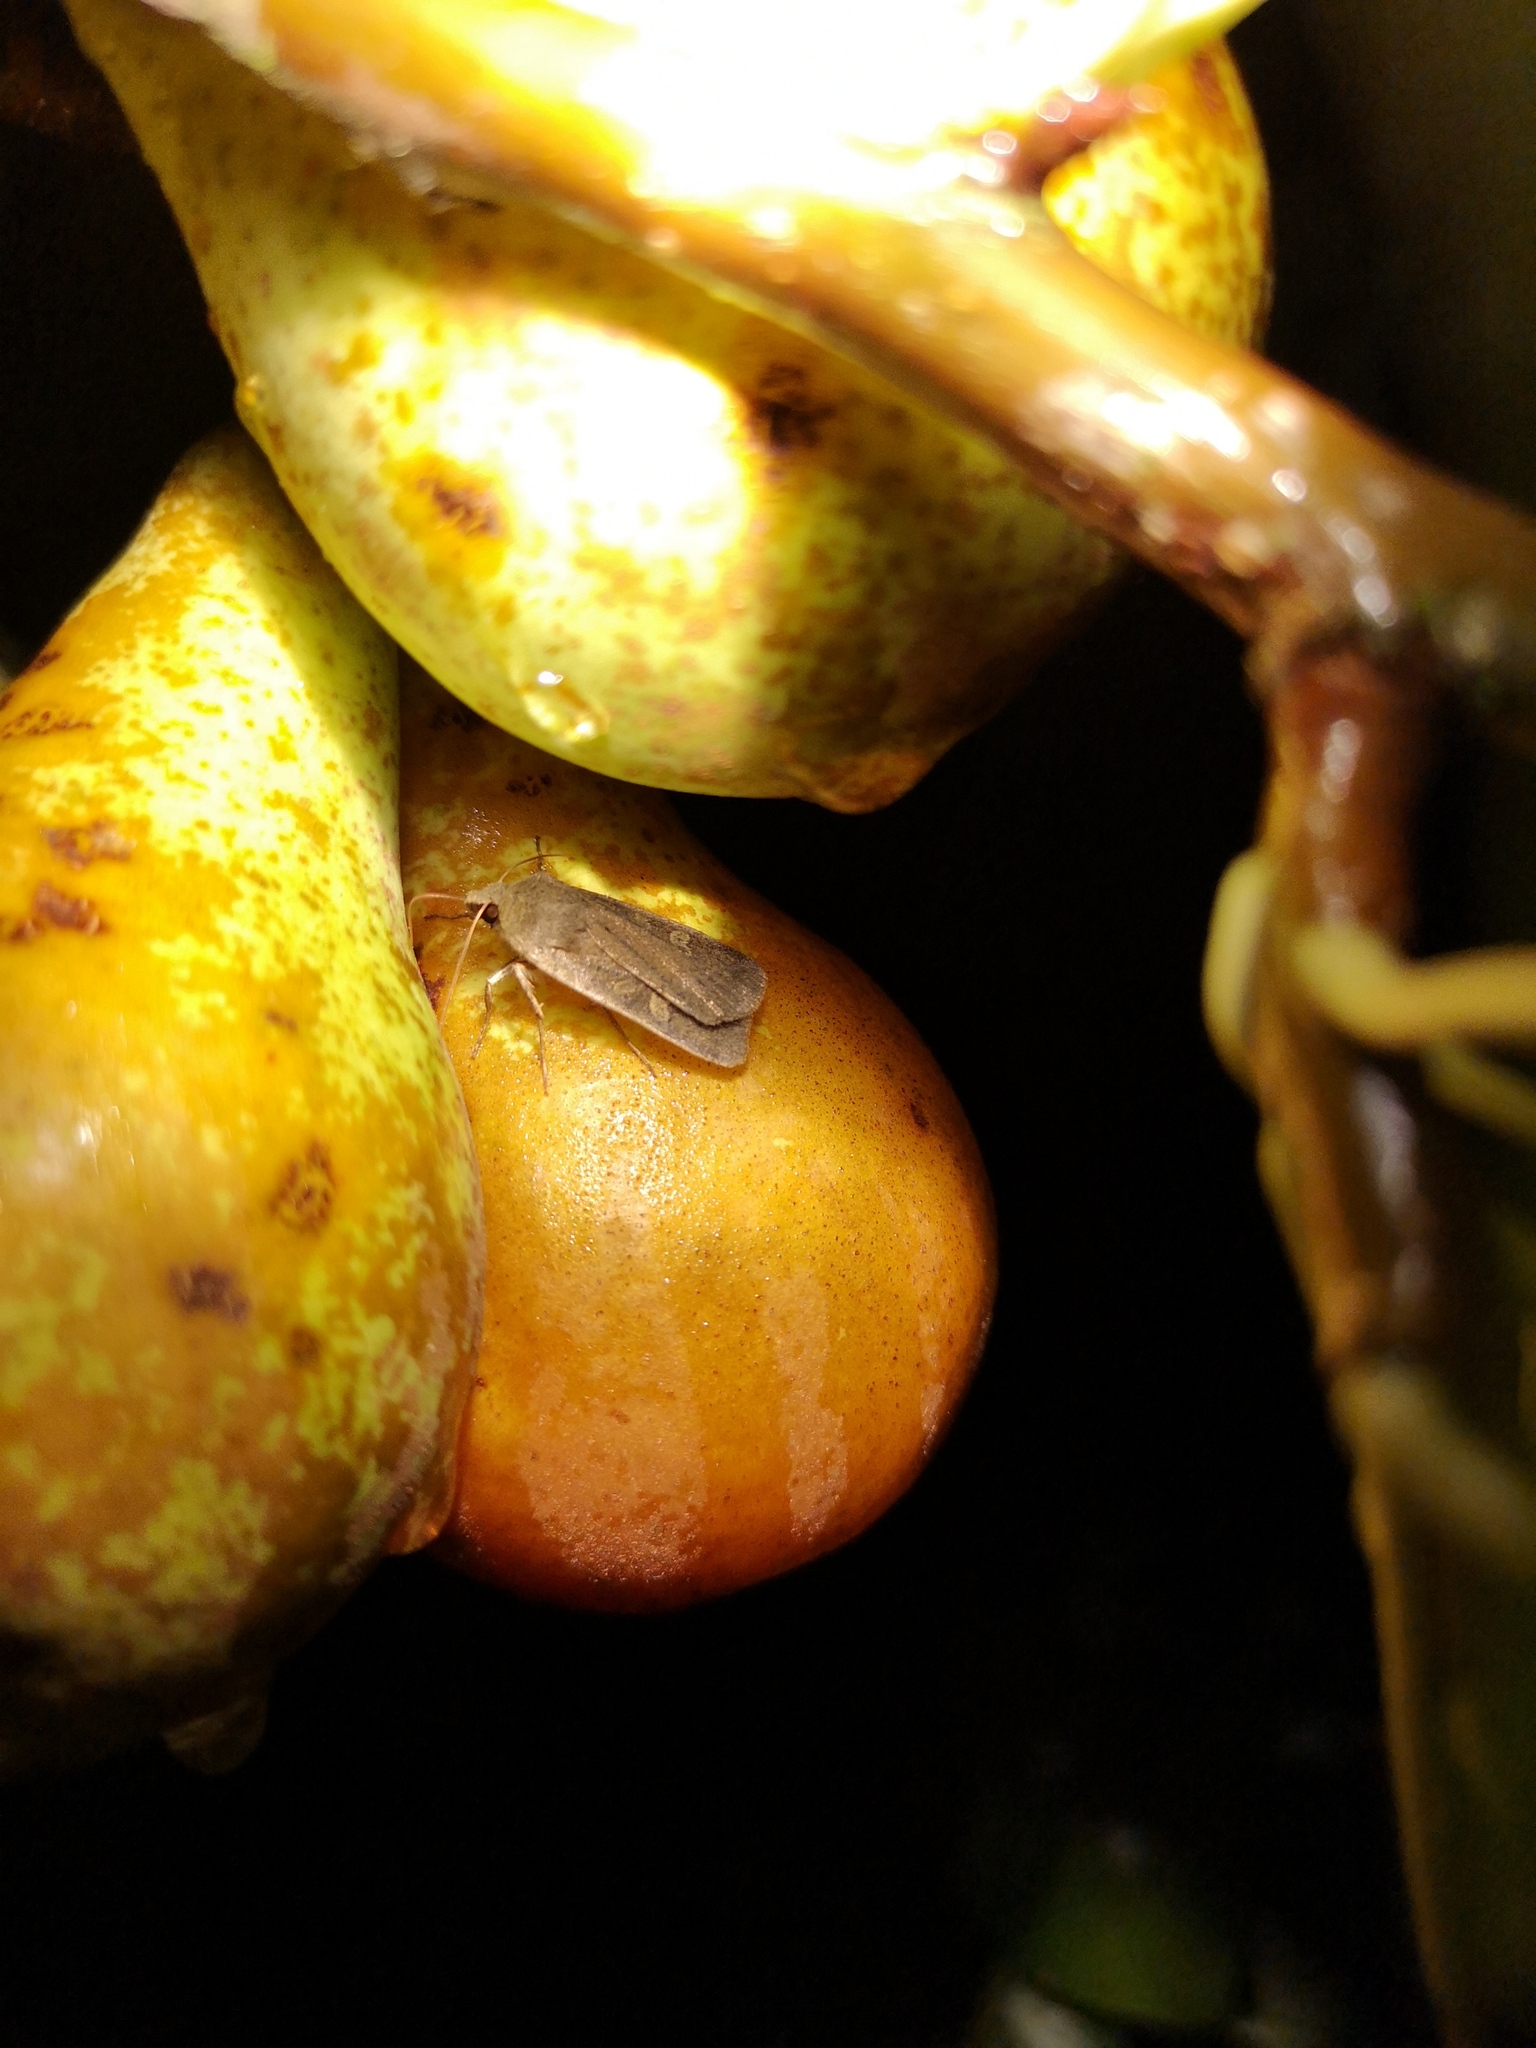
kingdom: Animalia
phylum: Arthropoda
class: Insecta
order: Lepidoptera
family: Noctuidae
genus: Xestia
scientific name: Xestia xanthographa
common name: Square-spot rustic
